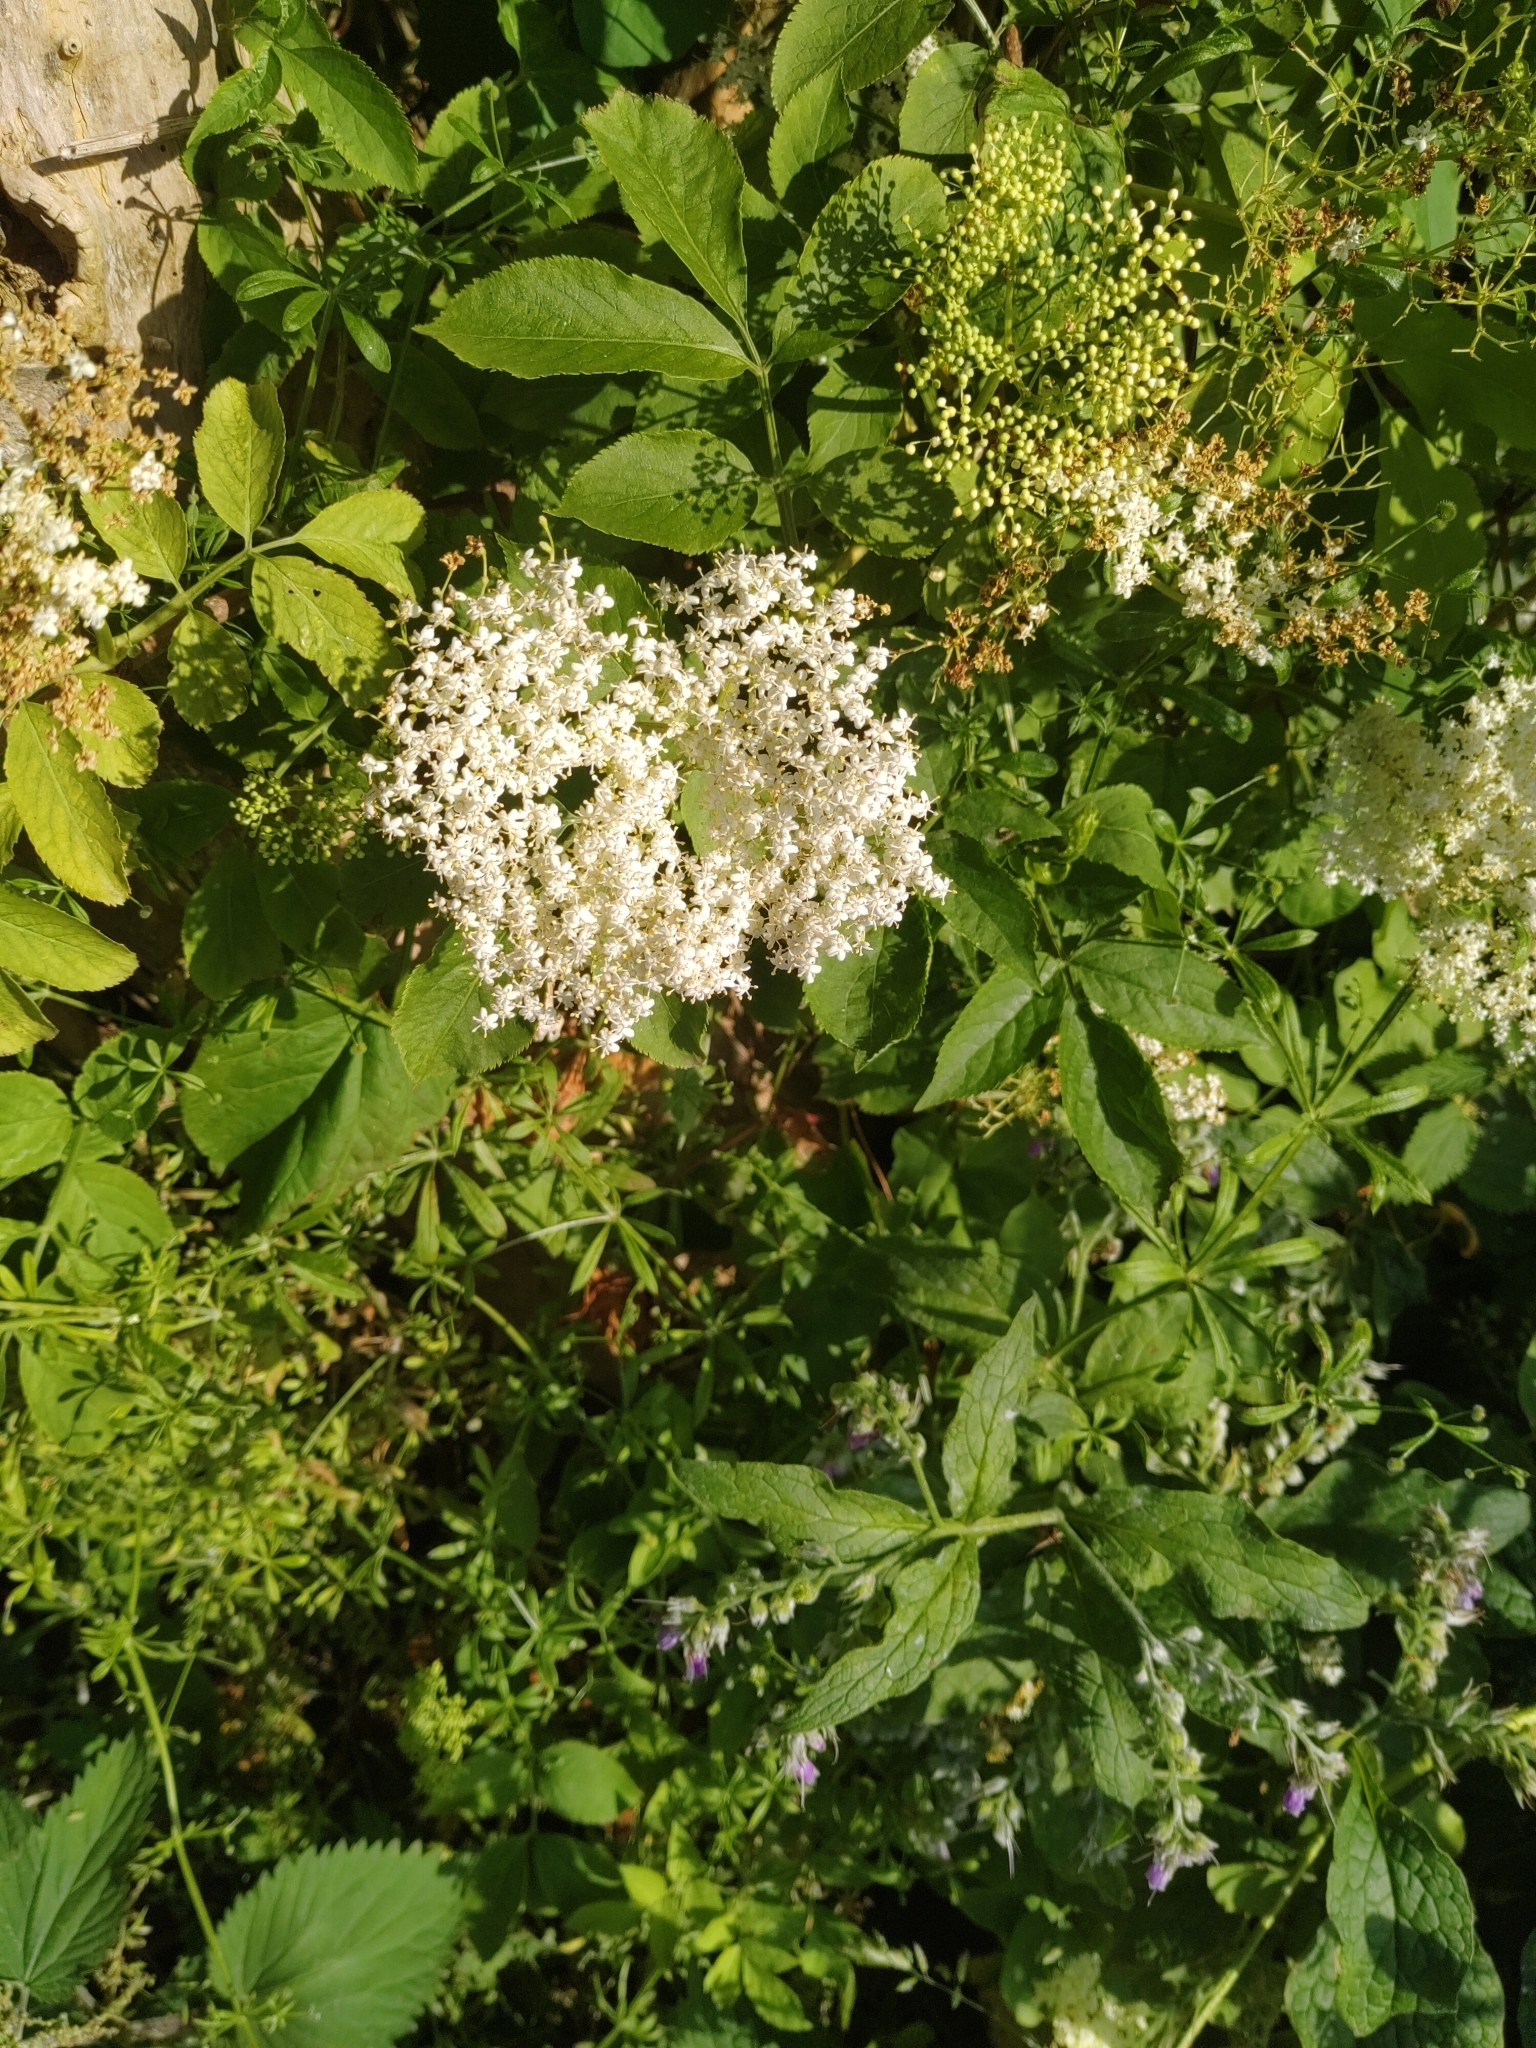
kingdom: Plantae
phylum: Tracheophyta
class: Magnoliopsida
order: Dipsacales
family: Viburnaceae
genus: Sambucus
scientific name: Sambucus nigra
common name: Elder
